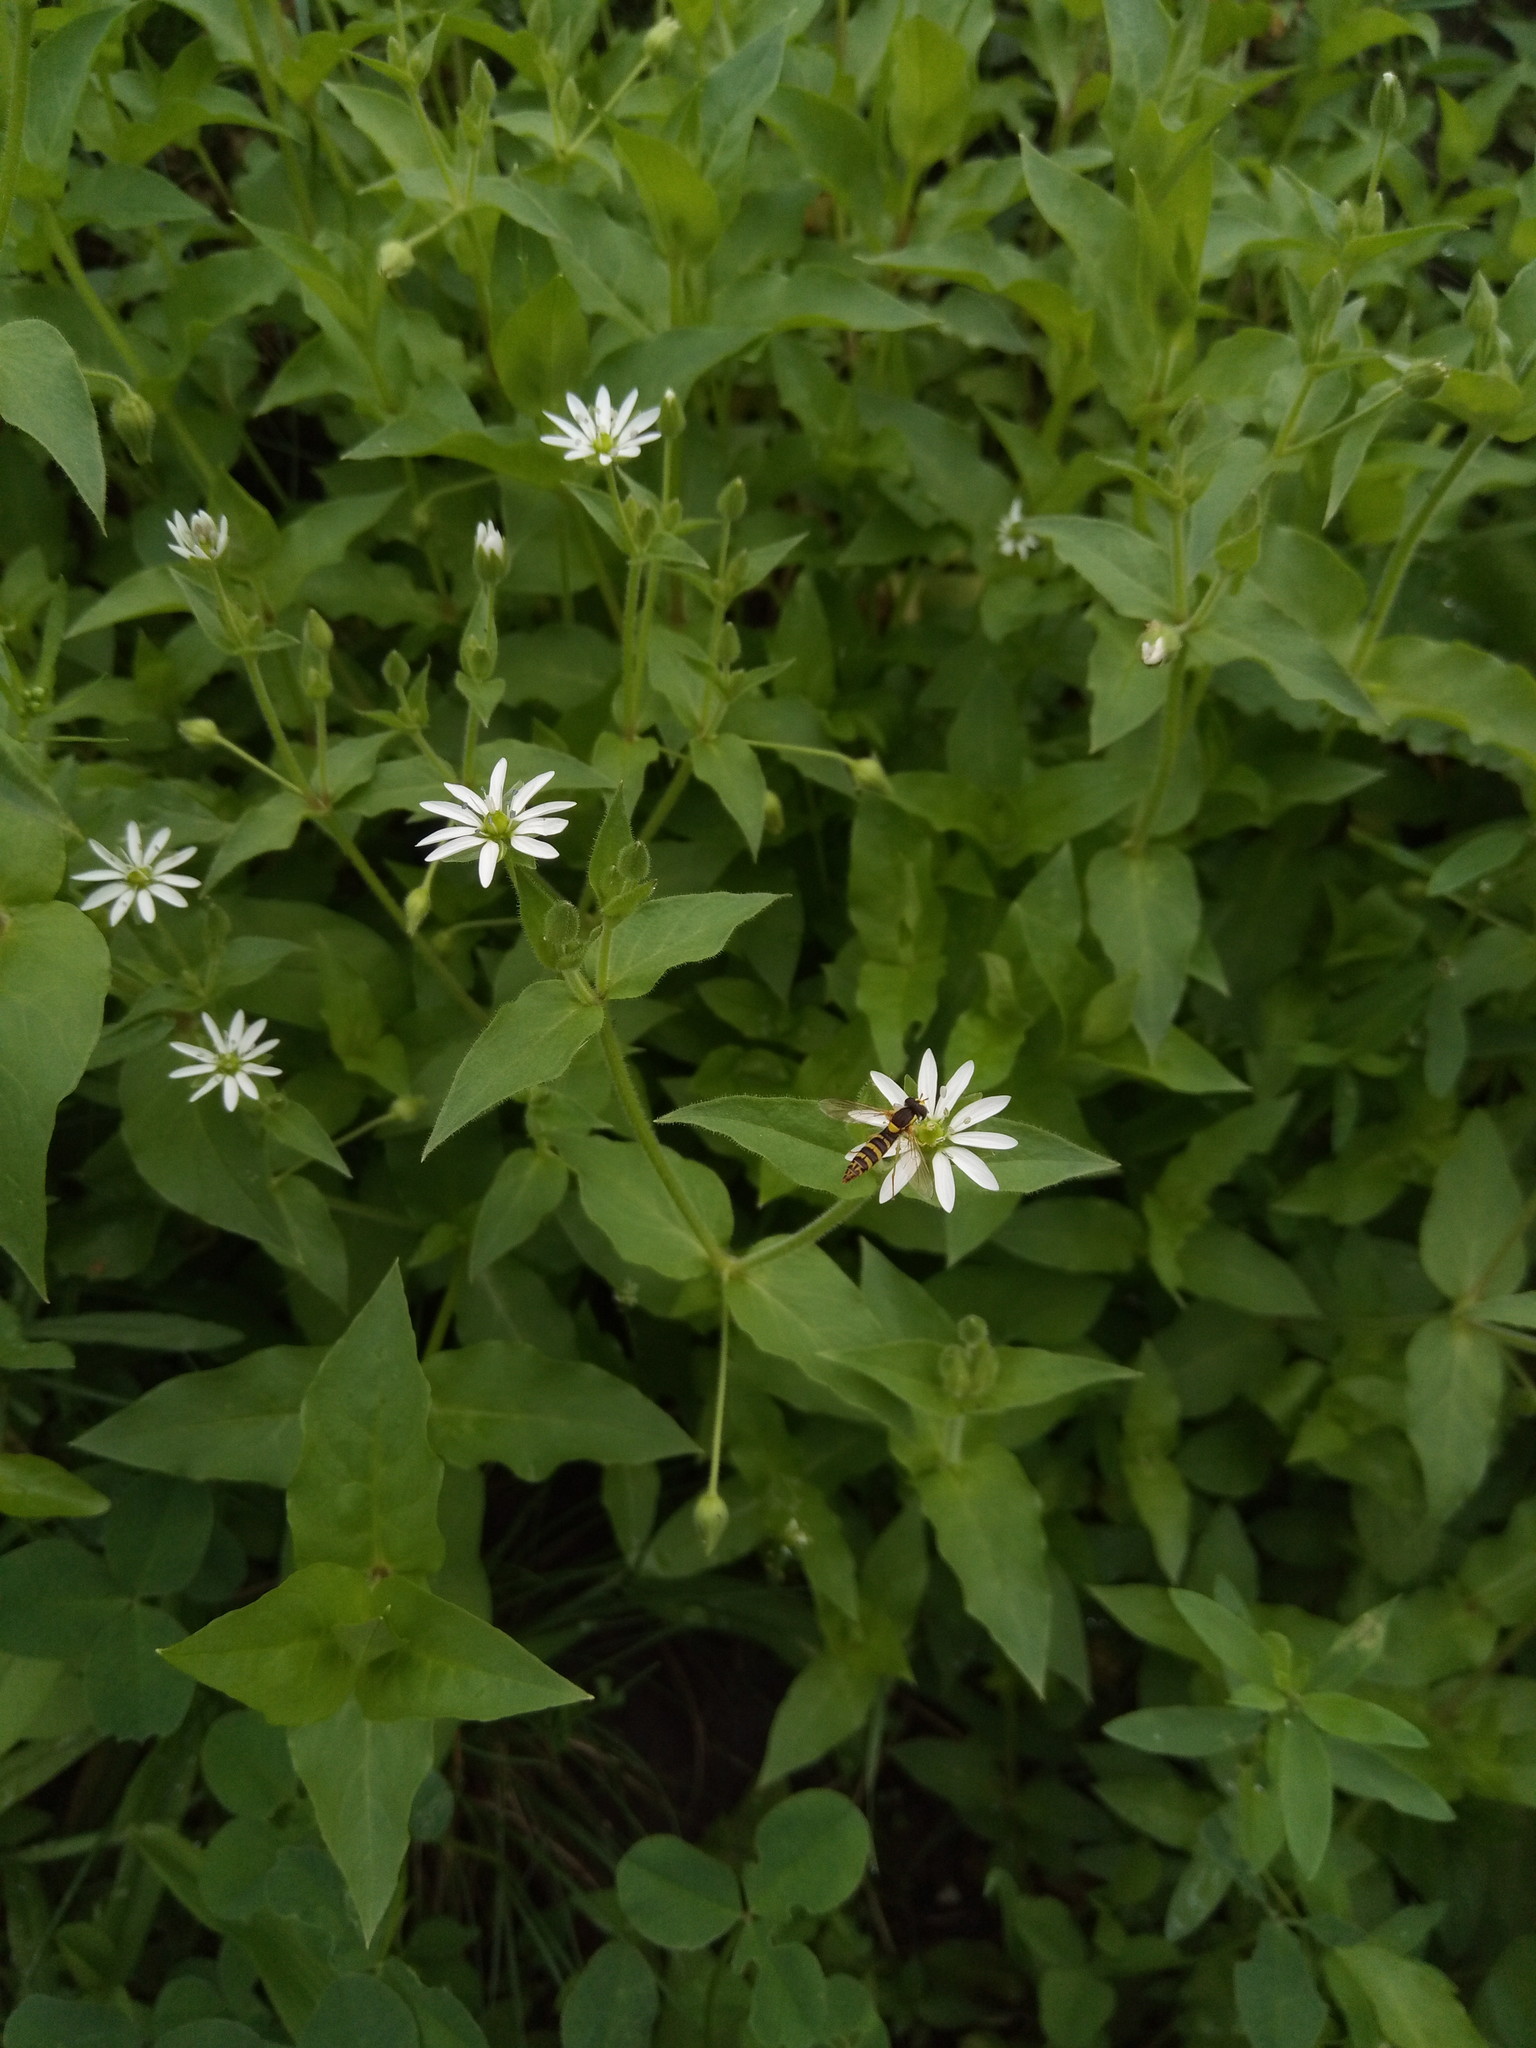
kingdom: Plantae
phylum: Tracheophyta
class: Magnoliopsida
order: Caryophyllales
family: Caryophyllaceae
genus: Stellaria
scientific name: Stellaria aquatica
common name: Water chickweed
